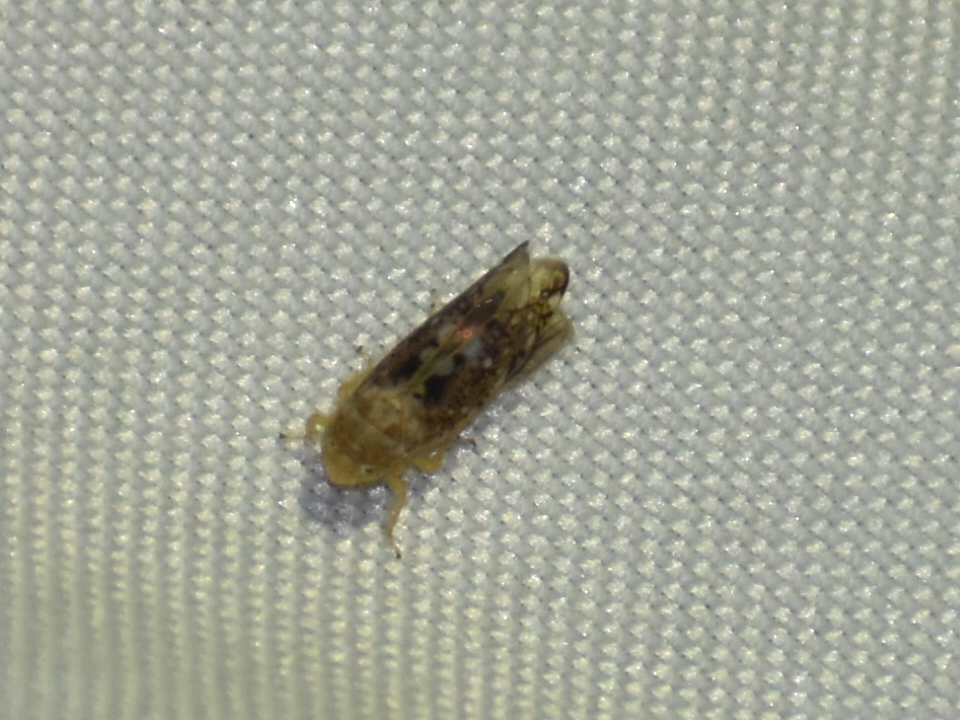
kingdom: Animalia
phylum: Arthropoda
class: Insecta
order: Hemiptera
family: Cicadellidae
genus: Prescottia
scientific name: Prescottia lobata
